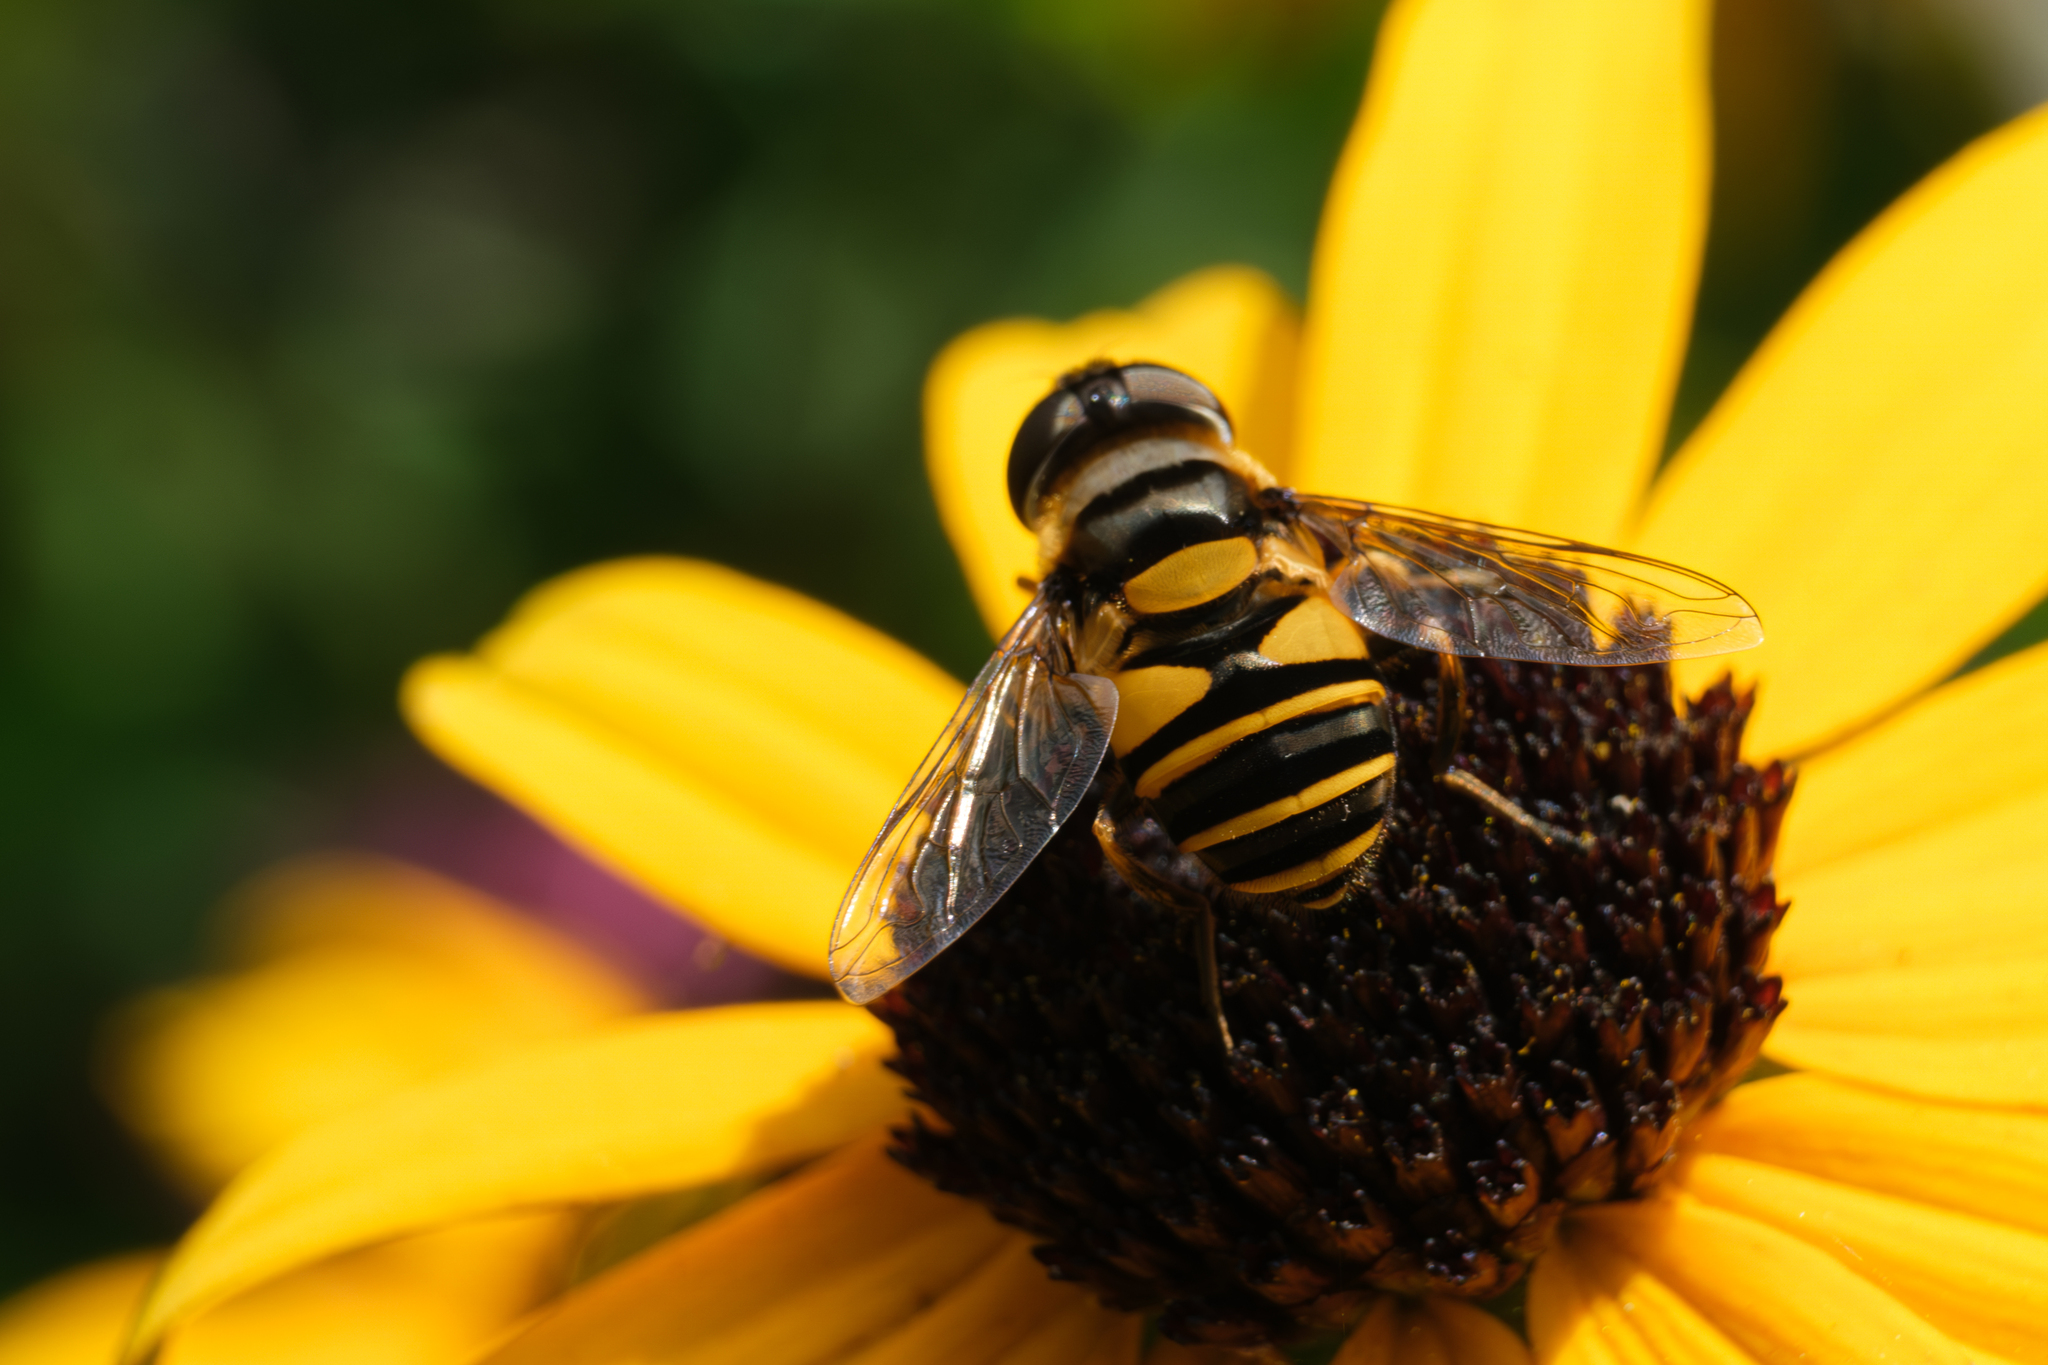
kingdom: Animalia
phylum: Arthropoda
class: Insecta
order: Diptera
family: Syrphidae
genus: Eristalis
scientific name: Eristalis transversa
